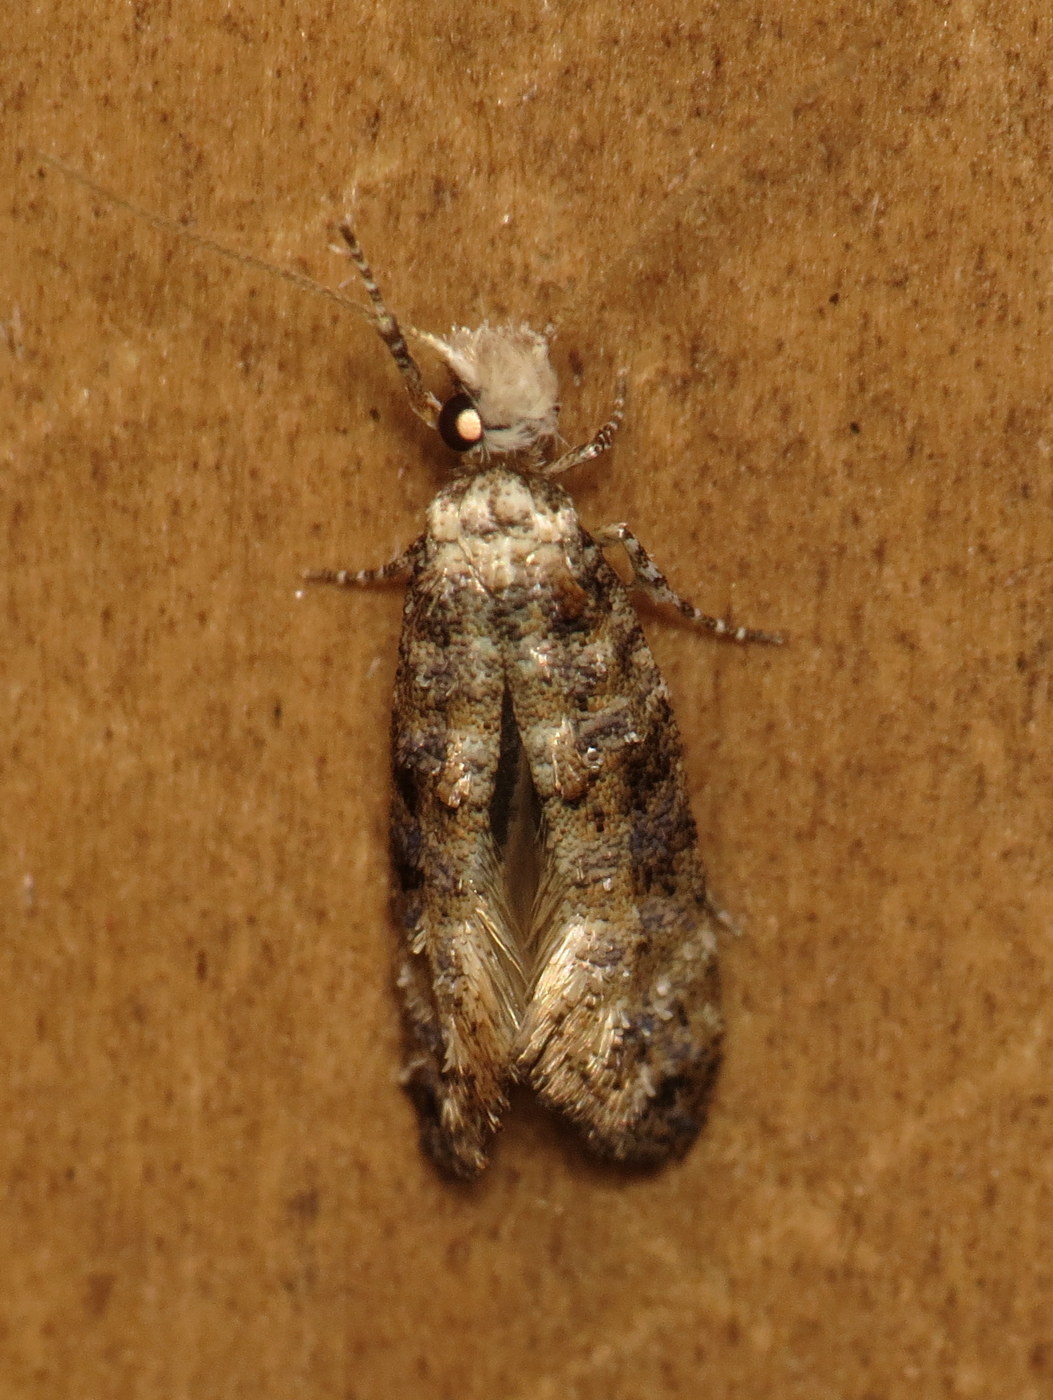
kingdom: Animalia
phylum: Arthropoda
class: Insecta
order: Lepidoptera
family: Tineidae
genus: Xylesthia
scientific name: Xylesthia pruniramiella
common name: Clemens' bark moth
